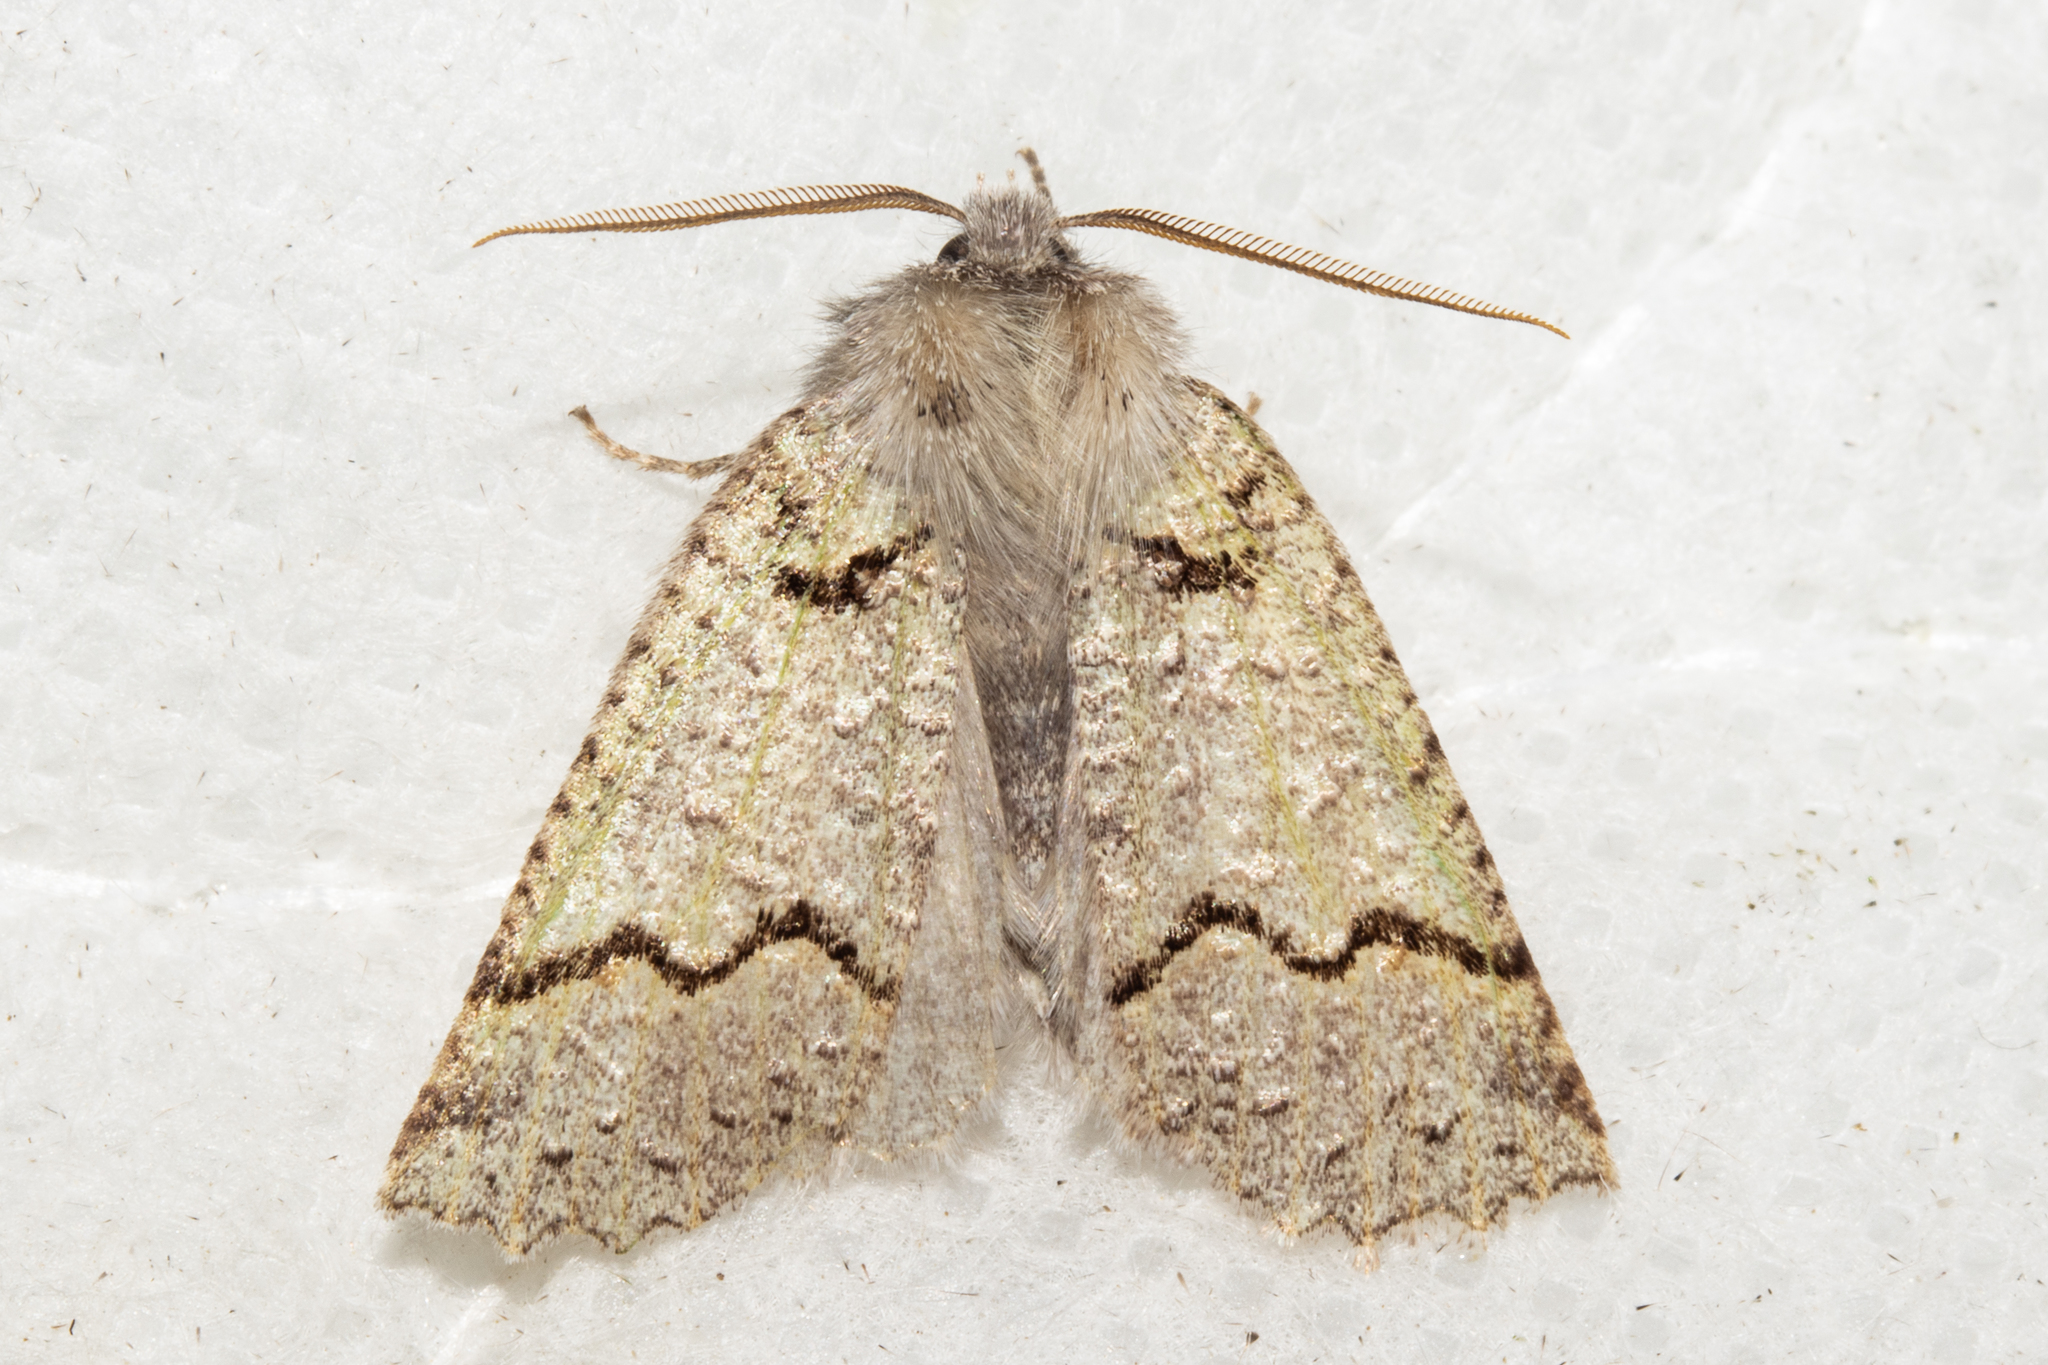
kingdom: Animalia
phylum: Arthropoda
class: Insecta
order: Lepidoptera
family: Geometridae
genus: Declana
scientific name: Declana floccosa
